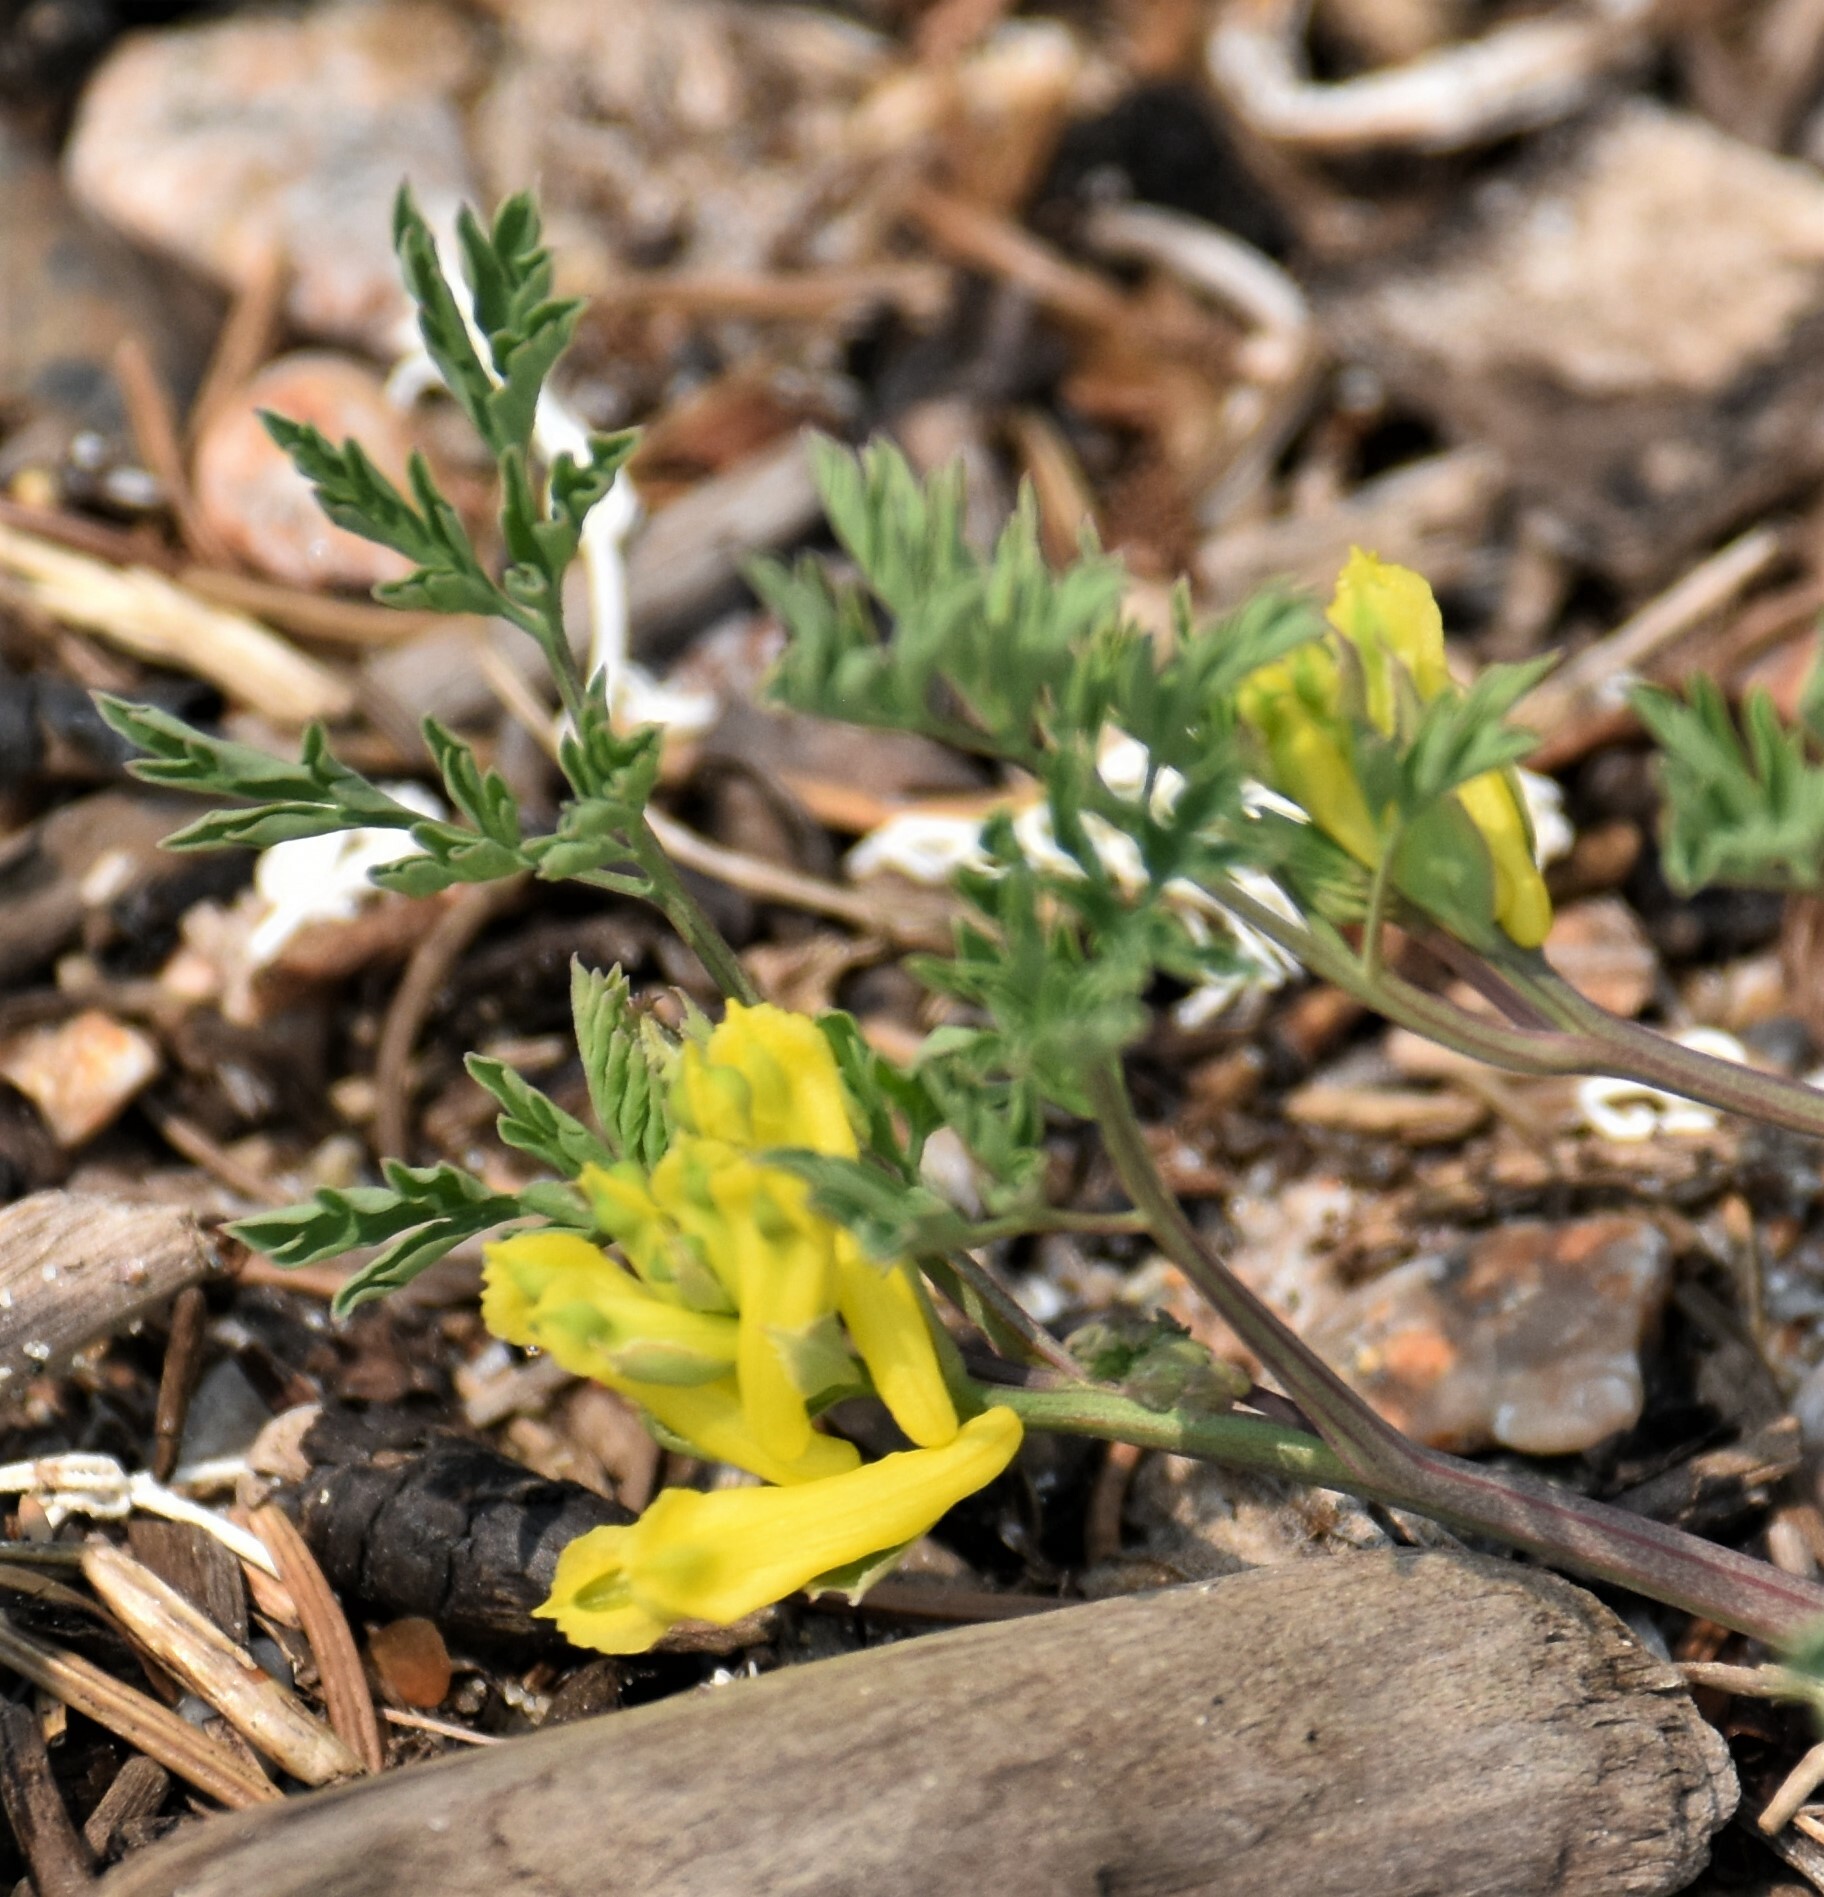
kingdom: Plantae
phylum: Tracheophyta
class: Magnoliopsida
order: Ranunculales
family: Papaveraceae
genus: Corydalis
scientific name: Corydalis aurea
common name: Golden corydalis
